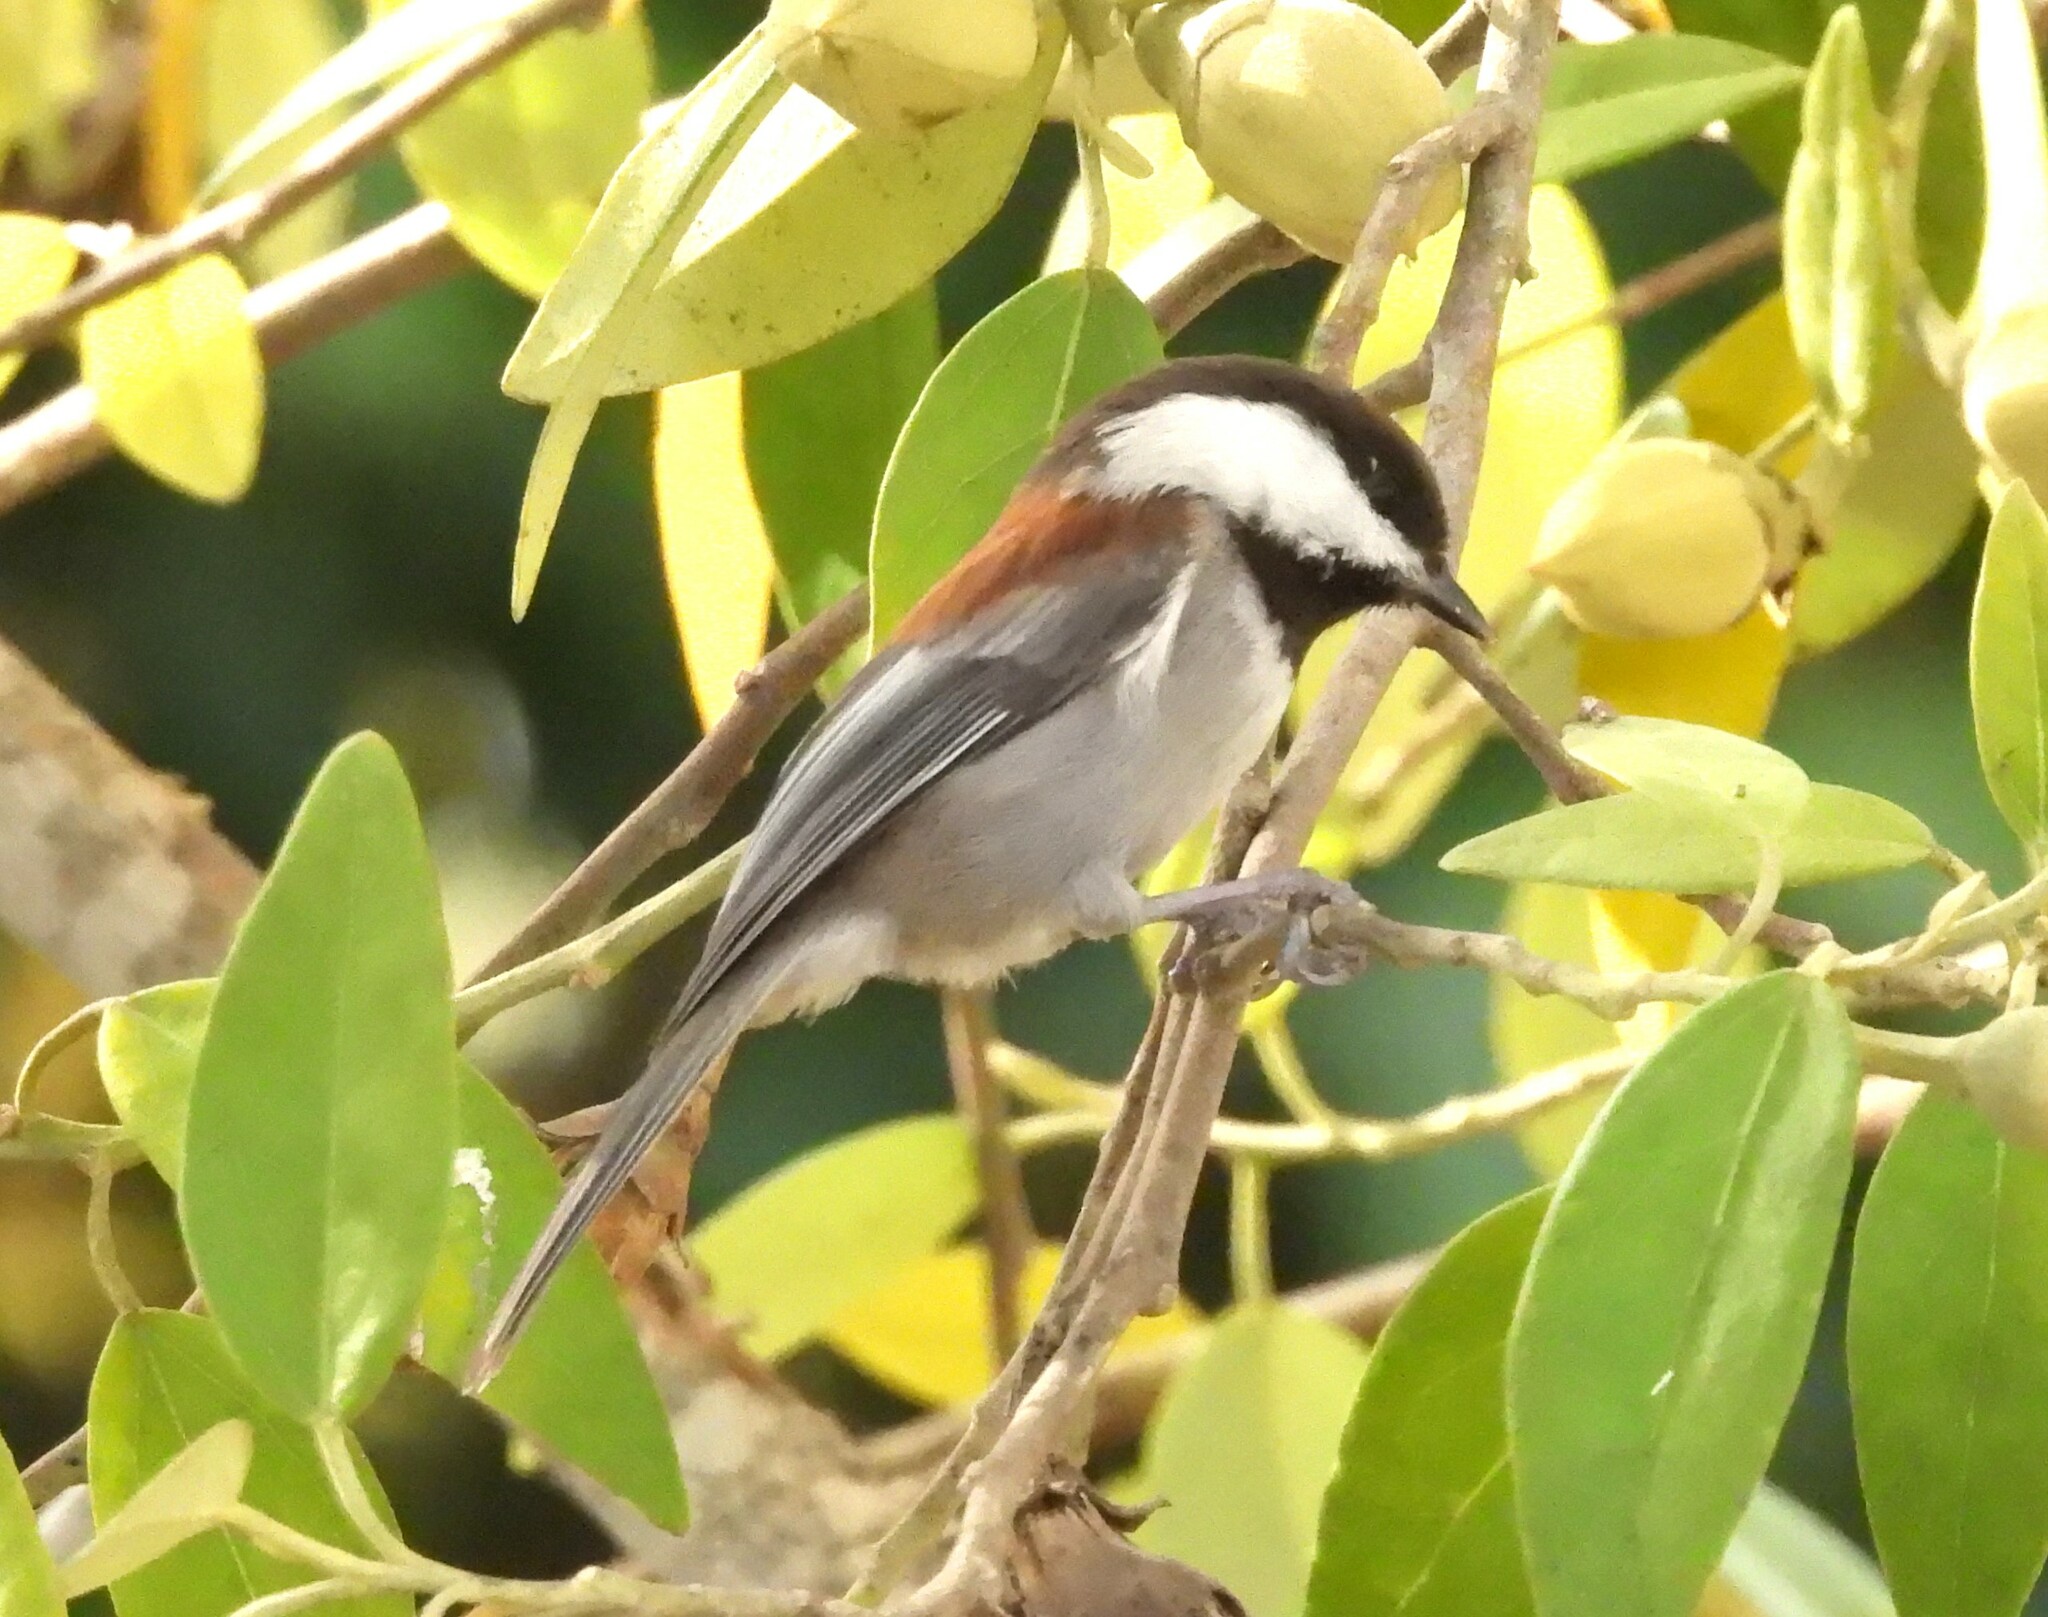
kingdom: Animalia
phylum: Chordata
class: Aves
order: Passeriformes
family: Paridae
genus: Poecile
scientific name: Poecile rufescens
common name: Chestnut-backed chickadee
